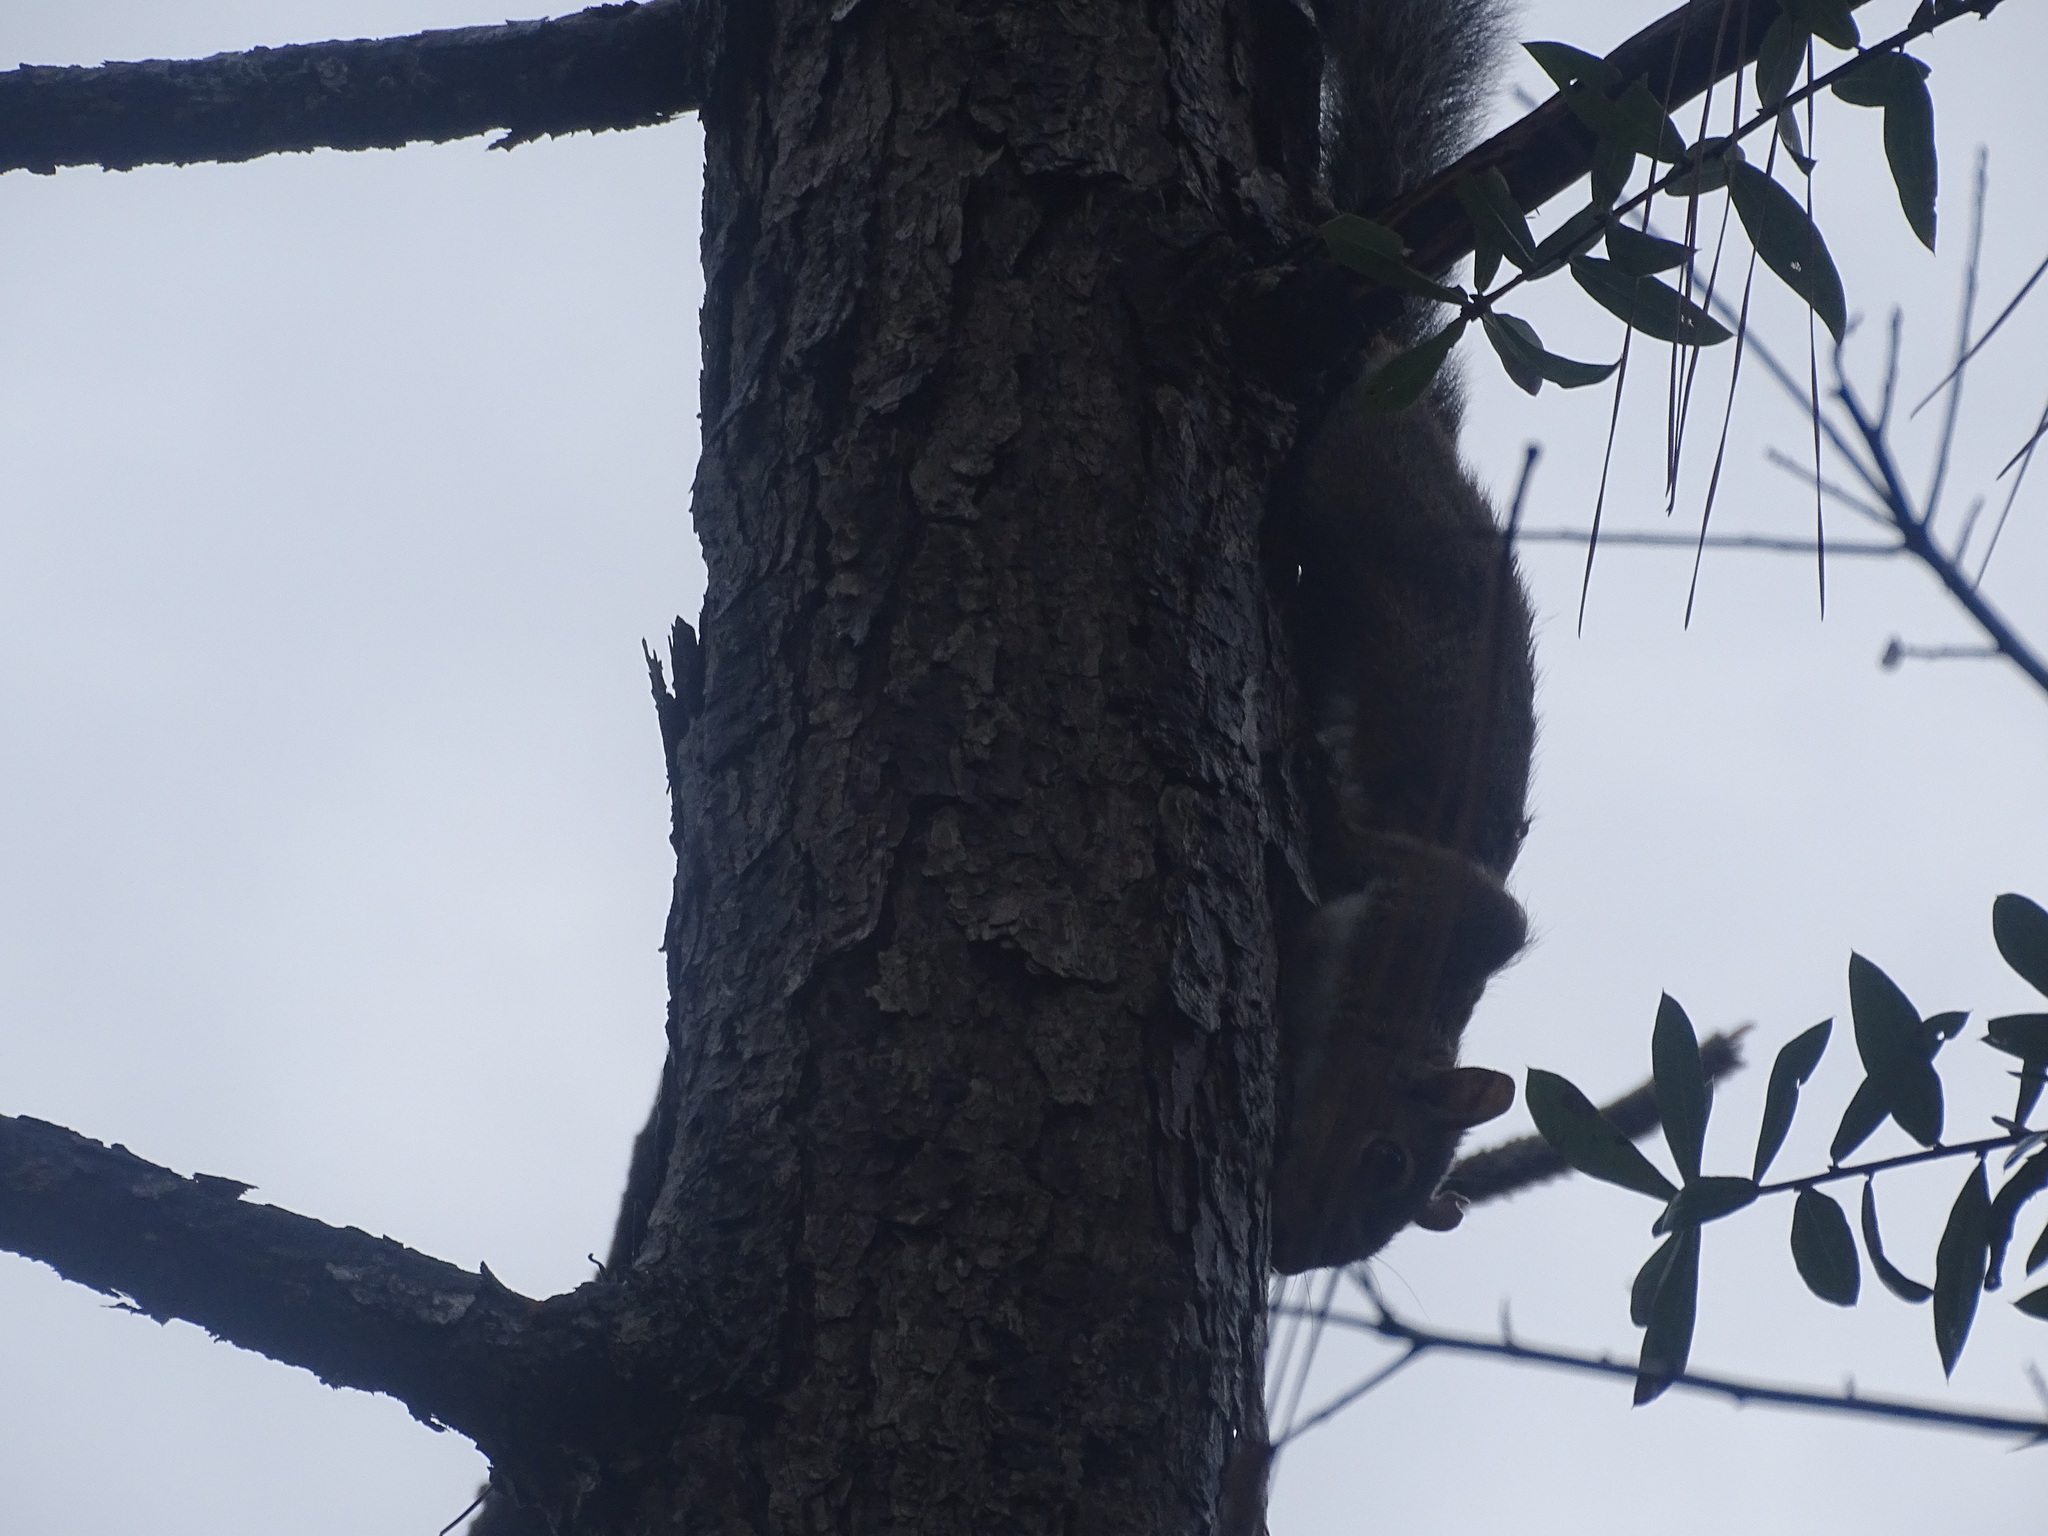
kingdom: Animalia
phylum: Chordata
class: Mammalia
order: Rodentia
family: Sciuridae
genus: Sciurus
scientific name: Sciurus carolinensis
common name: Eastern gray squirrel
